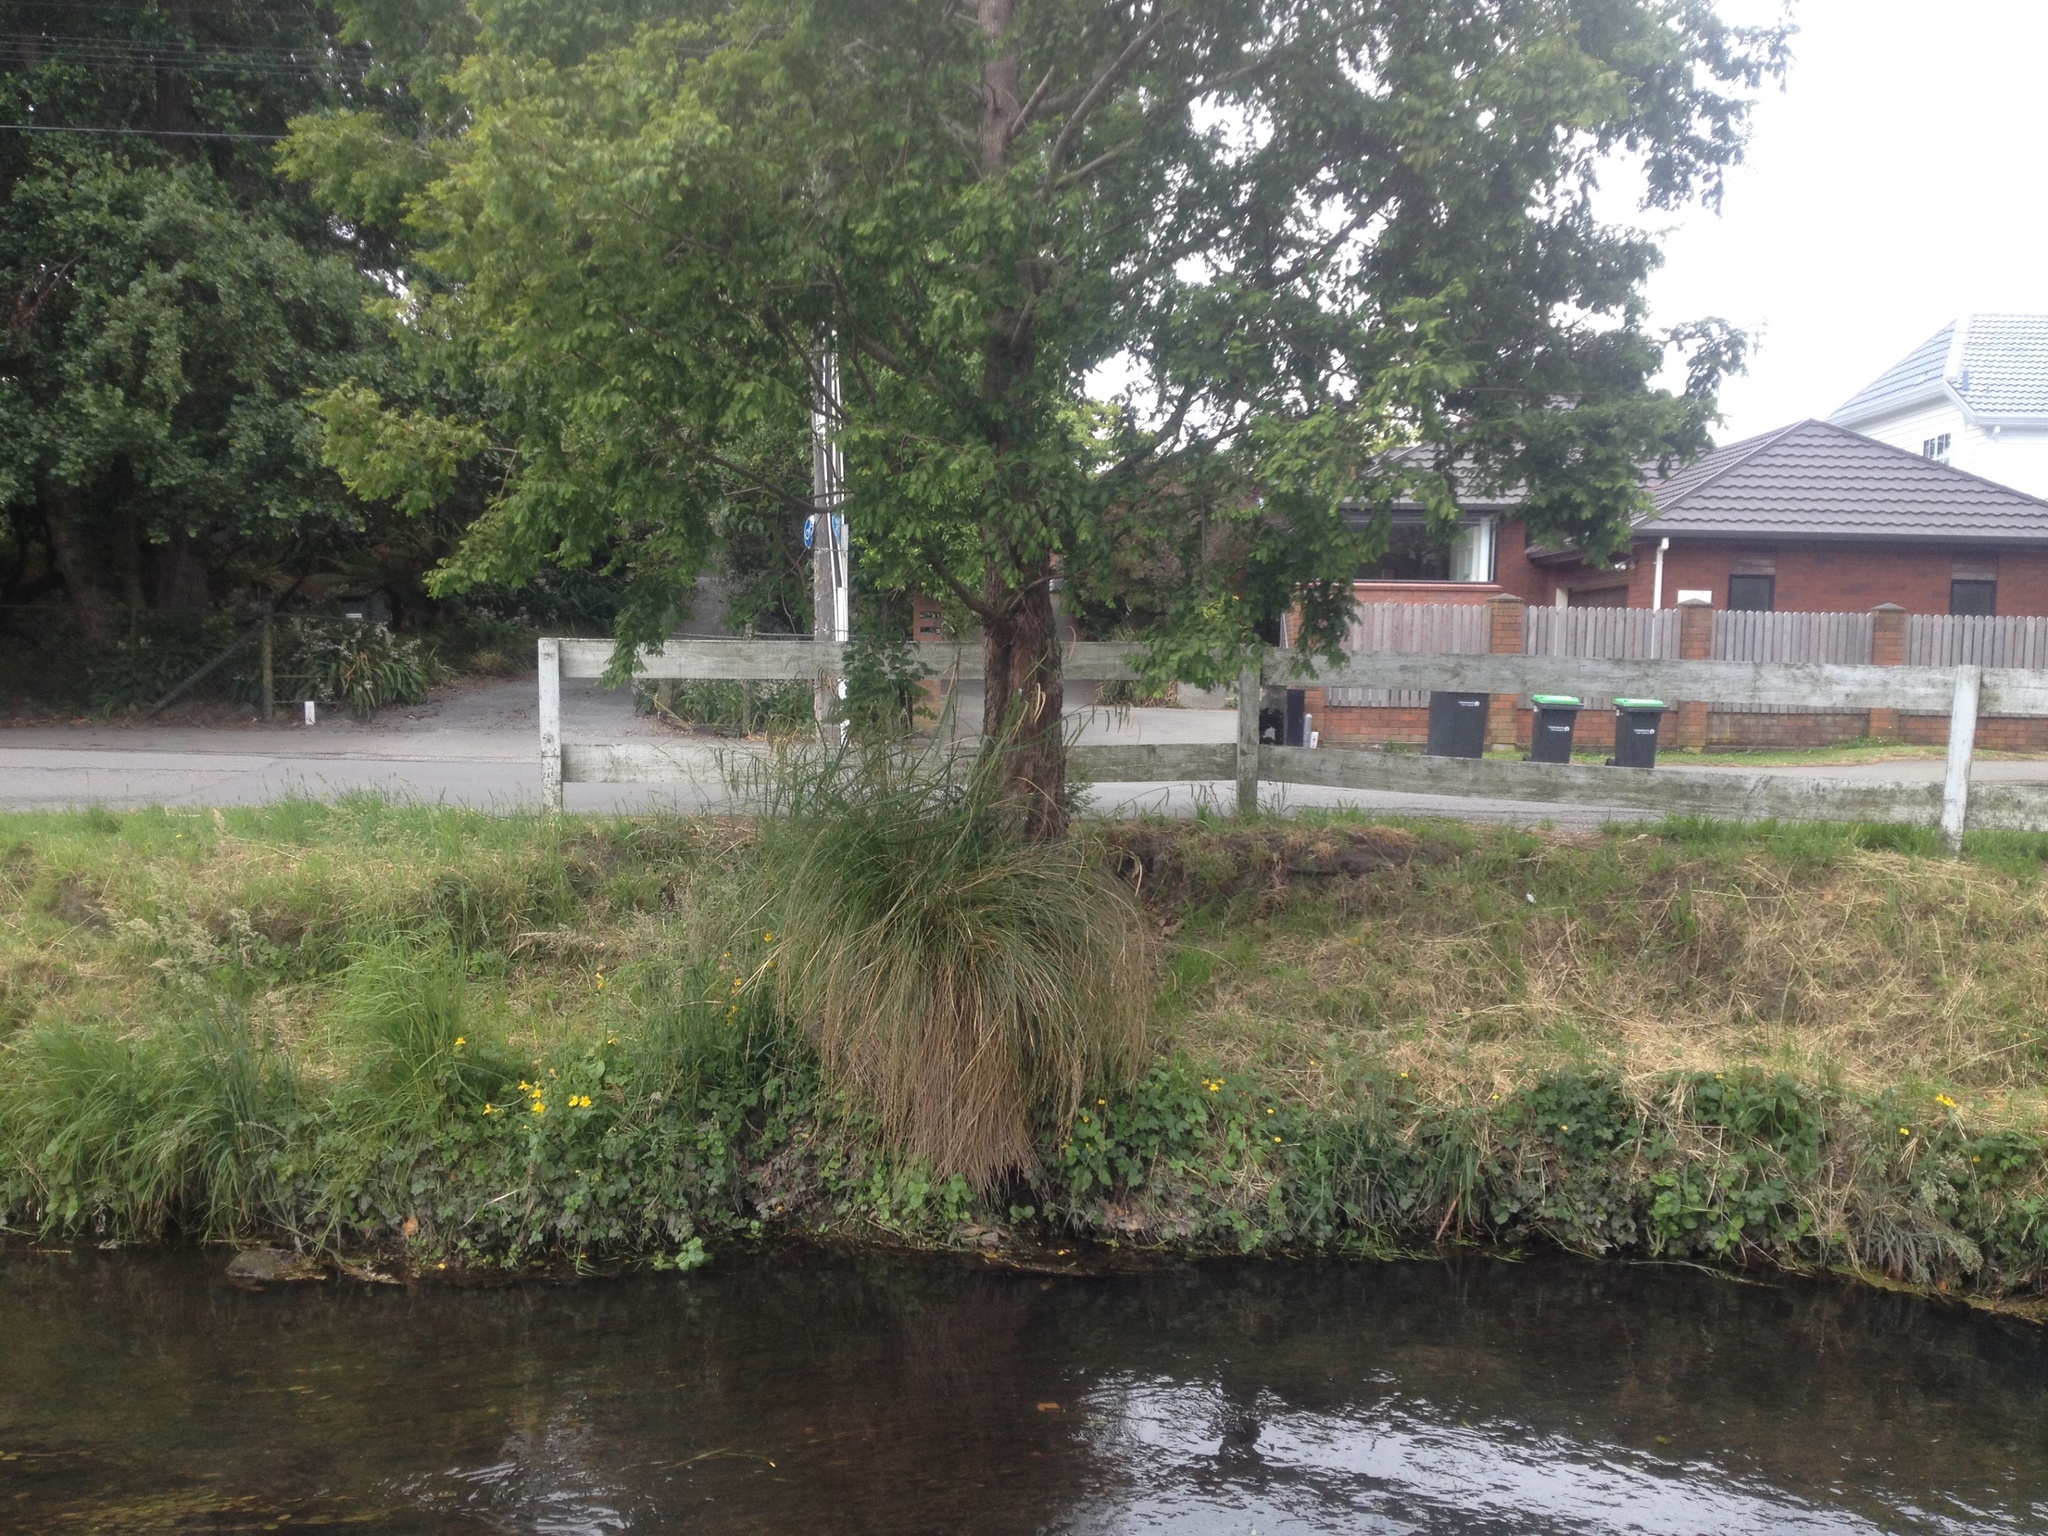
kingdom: Plantae
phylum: Tracheophyta
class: Liliopsida
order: Poales
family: Cyperaceae
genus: Carex
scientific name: Carex pendula
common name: Pendulous sedge
